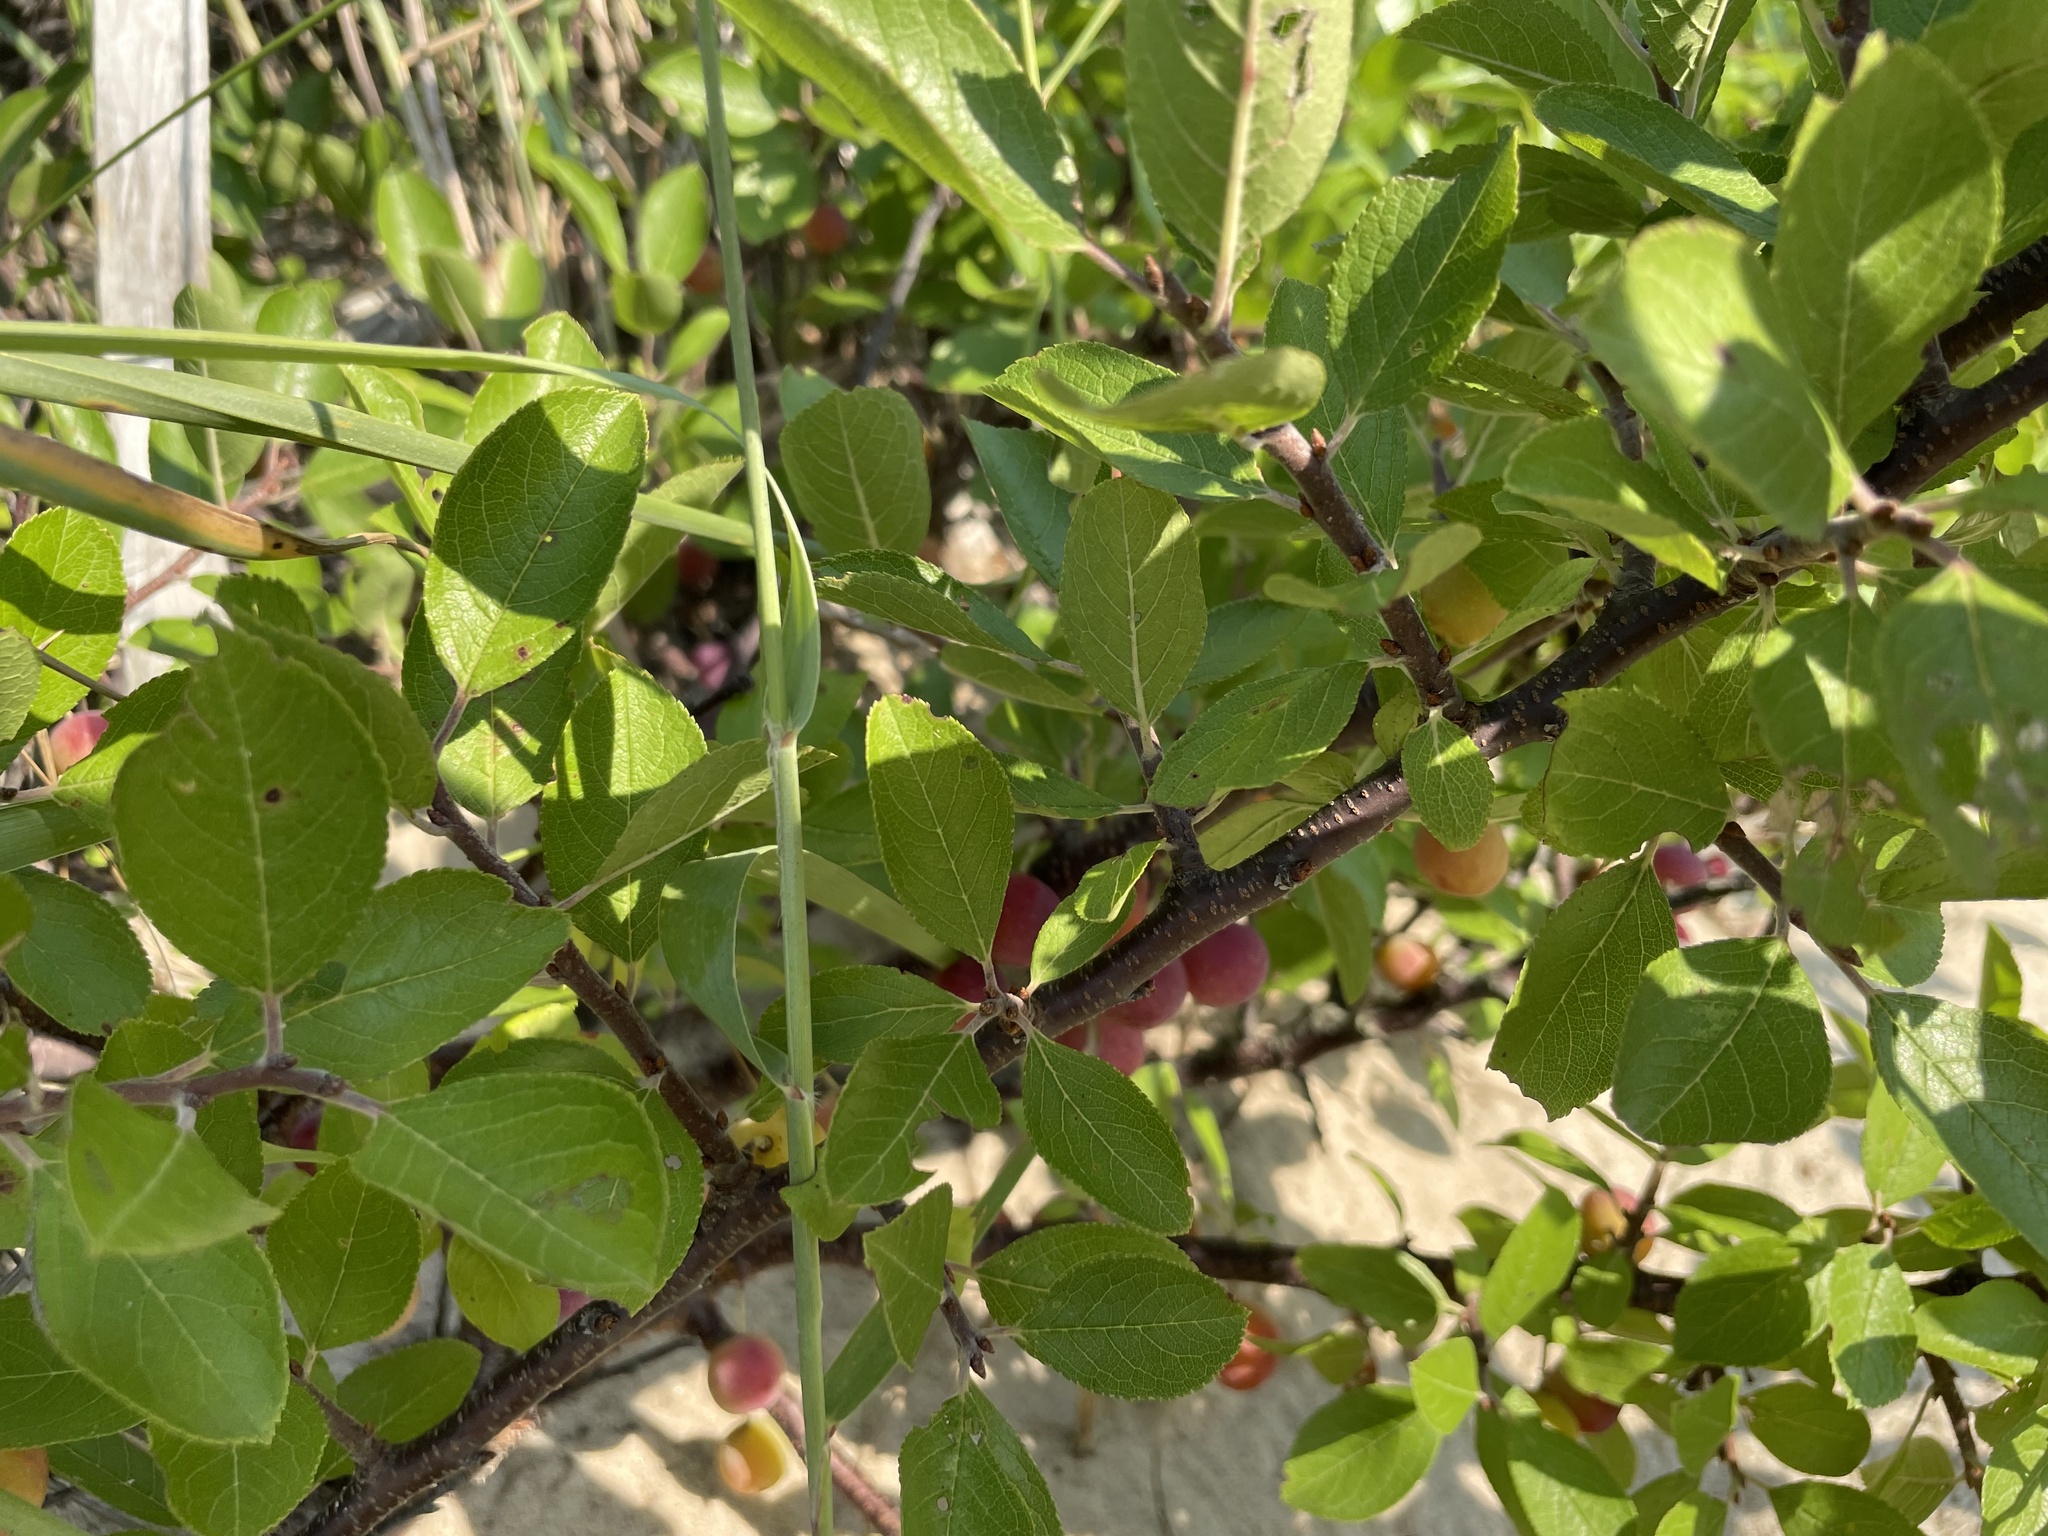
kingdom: Plantae
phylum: Tracheophyta
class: Magnoliopsida
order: Rosales
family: Rosaceae
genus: Prunus
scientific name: Prunus maritima
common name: Beach plum
